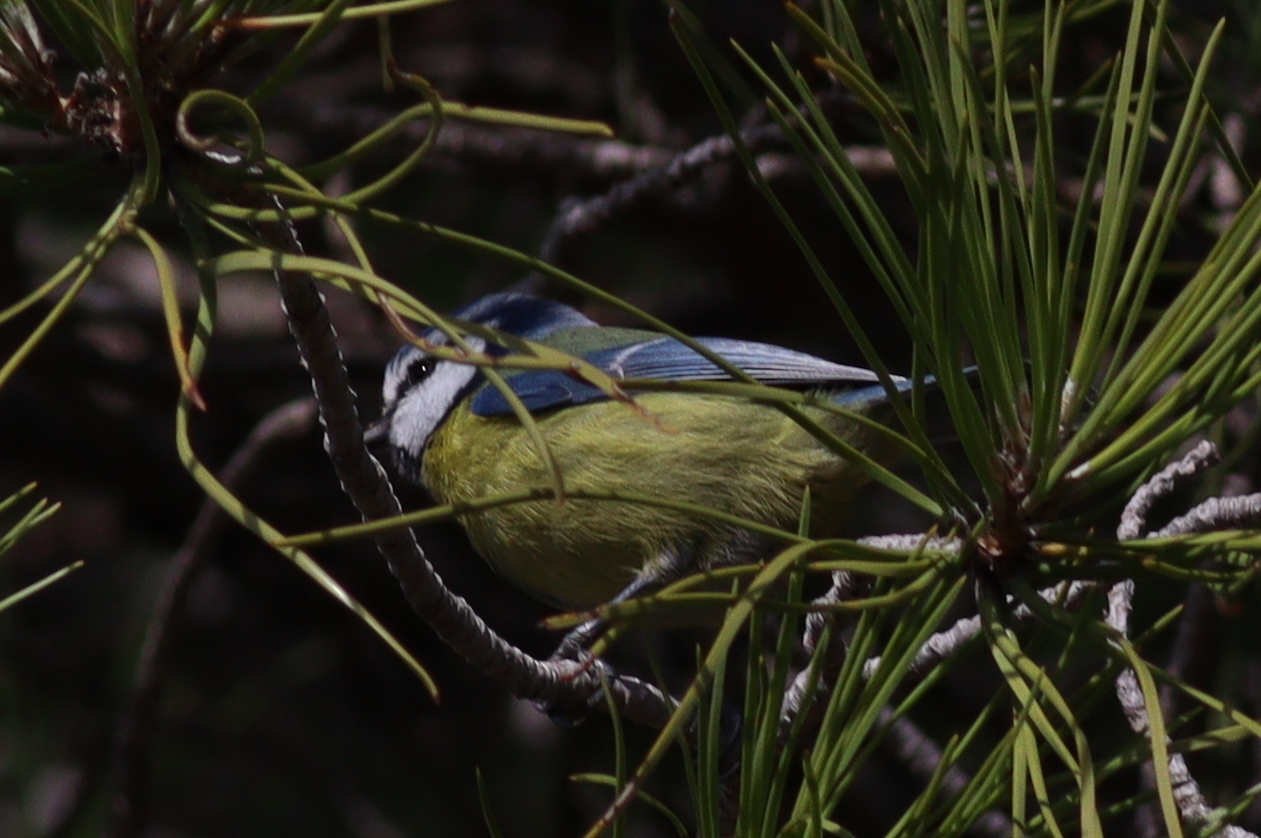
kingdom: Animalia
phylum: Chordata
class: Aves
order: Passeriformes
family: Paridae
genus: Cyanistes
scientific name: Cyanistes caeruleus
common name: Eurasian blue tit
